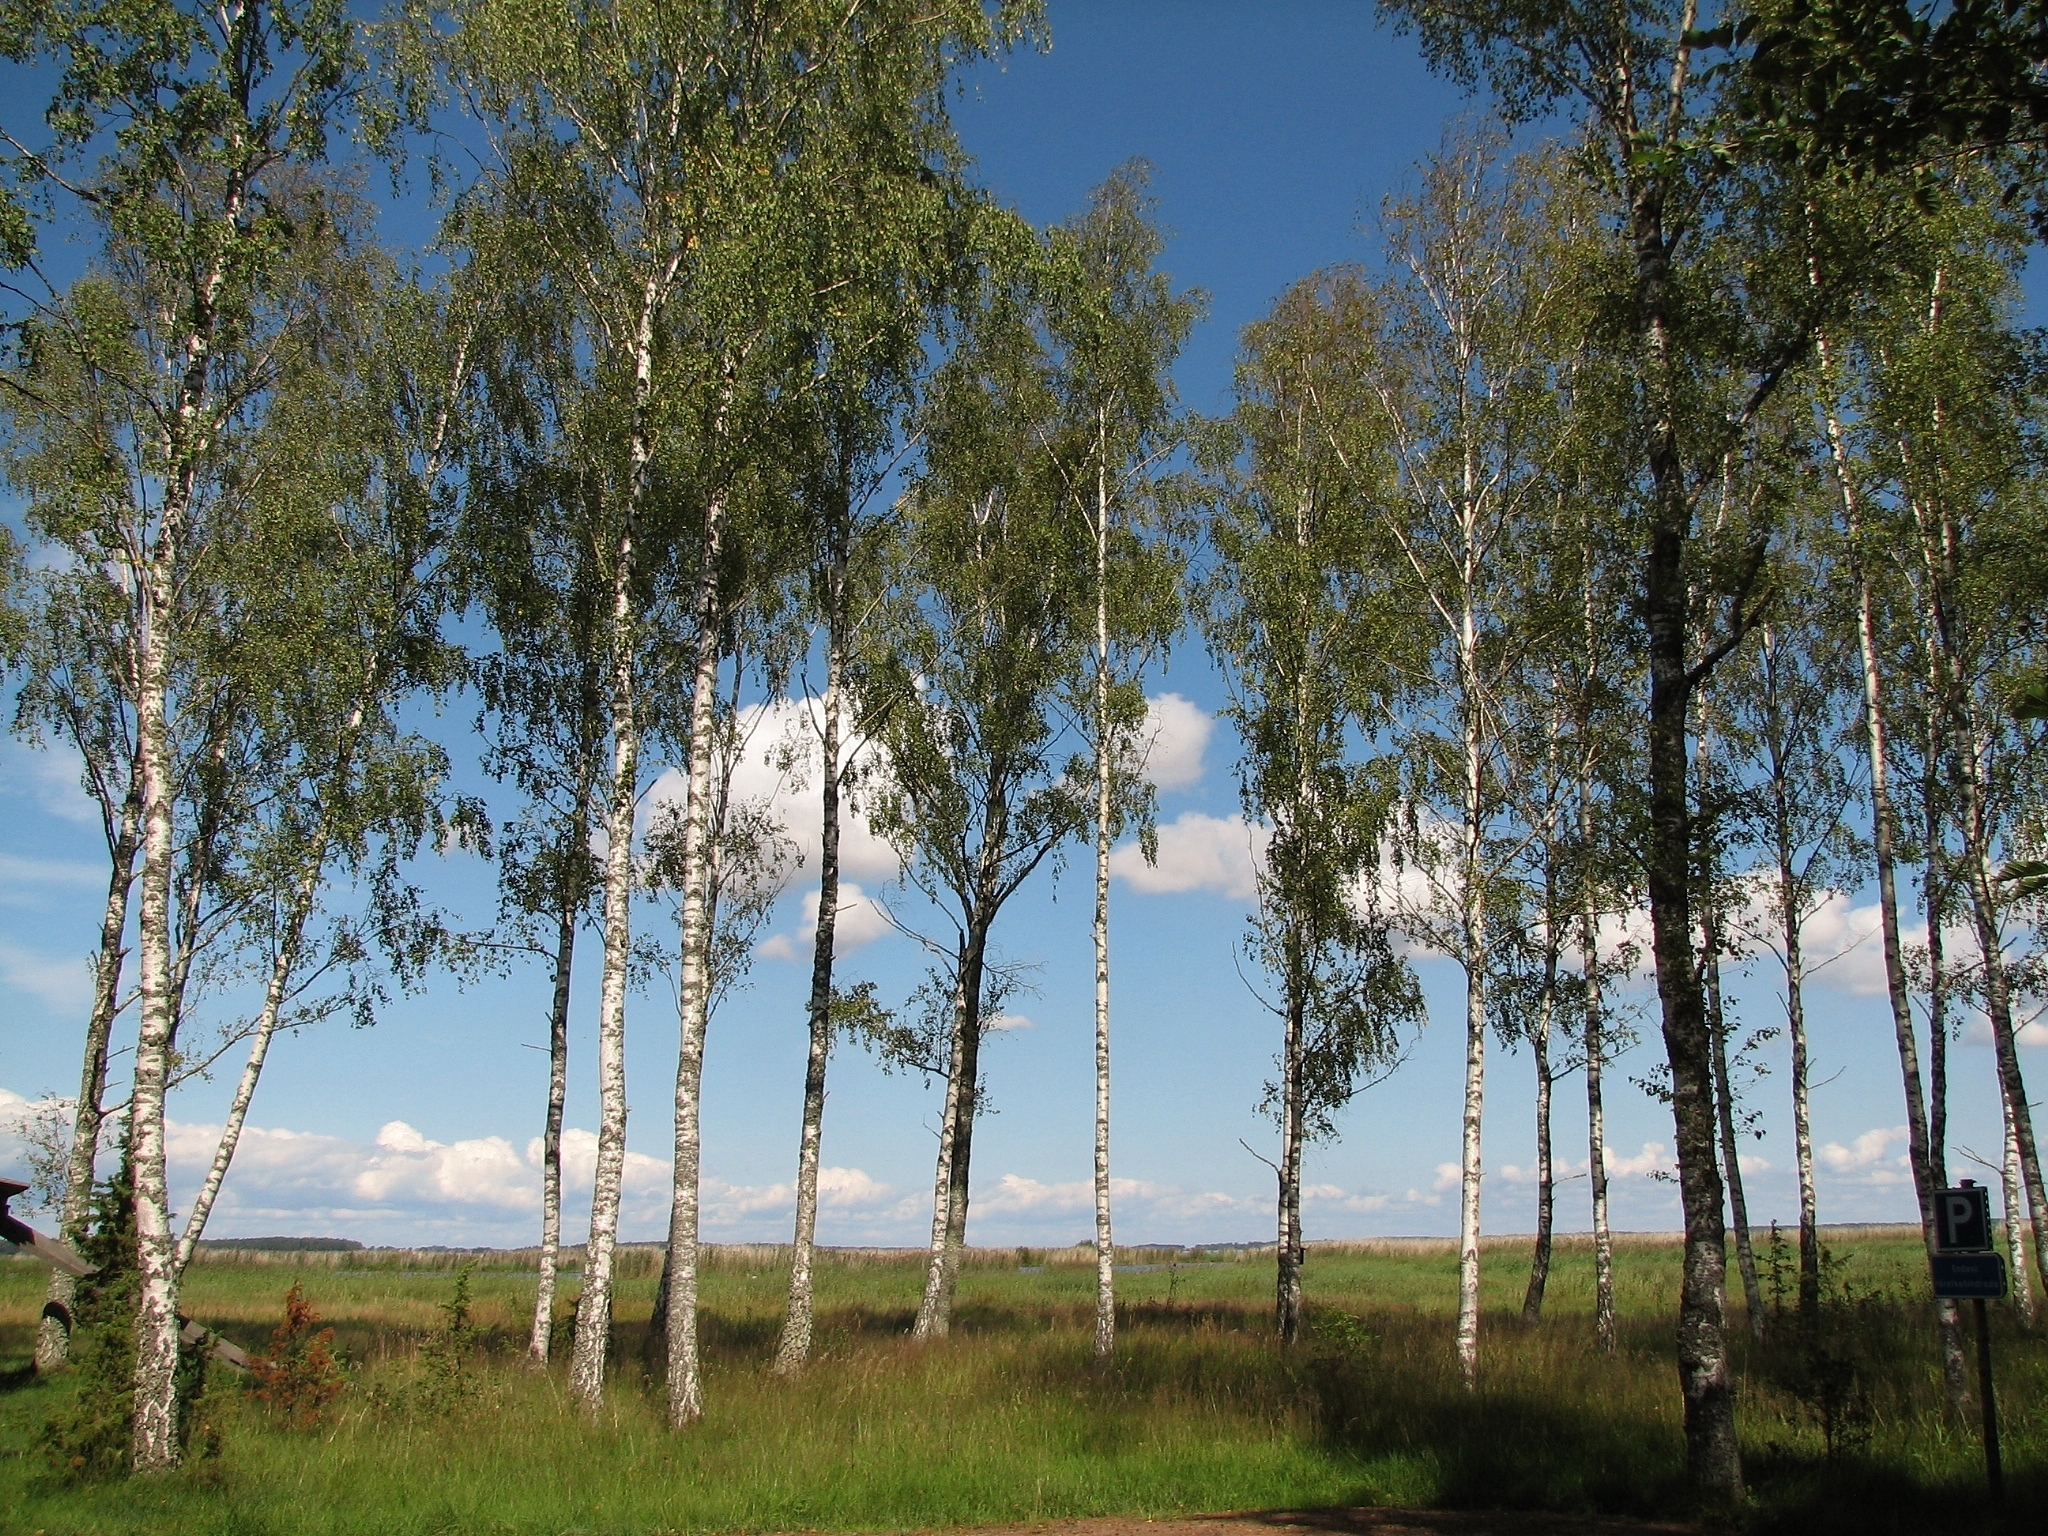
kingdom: Plantae
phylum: Tracheophyta
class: Magnoliopsida
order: Fagales
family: Betulaceae
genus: Betula
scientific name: Betula pendula
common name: Silver birch
